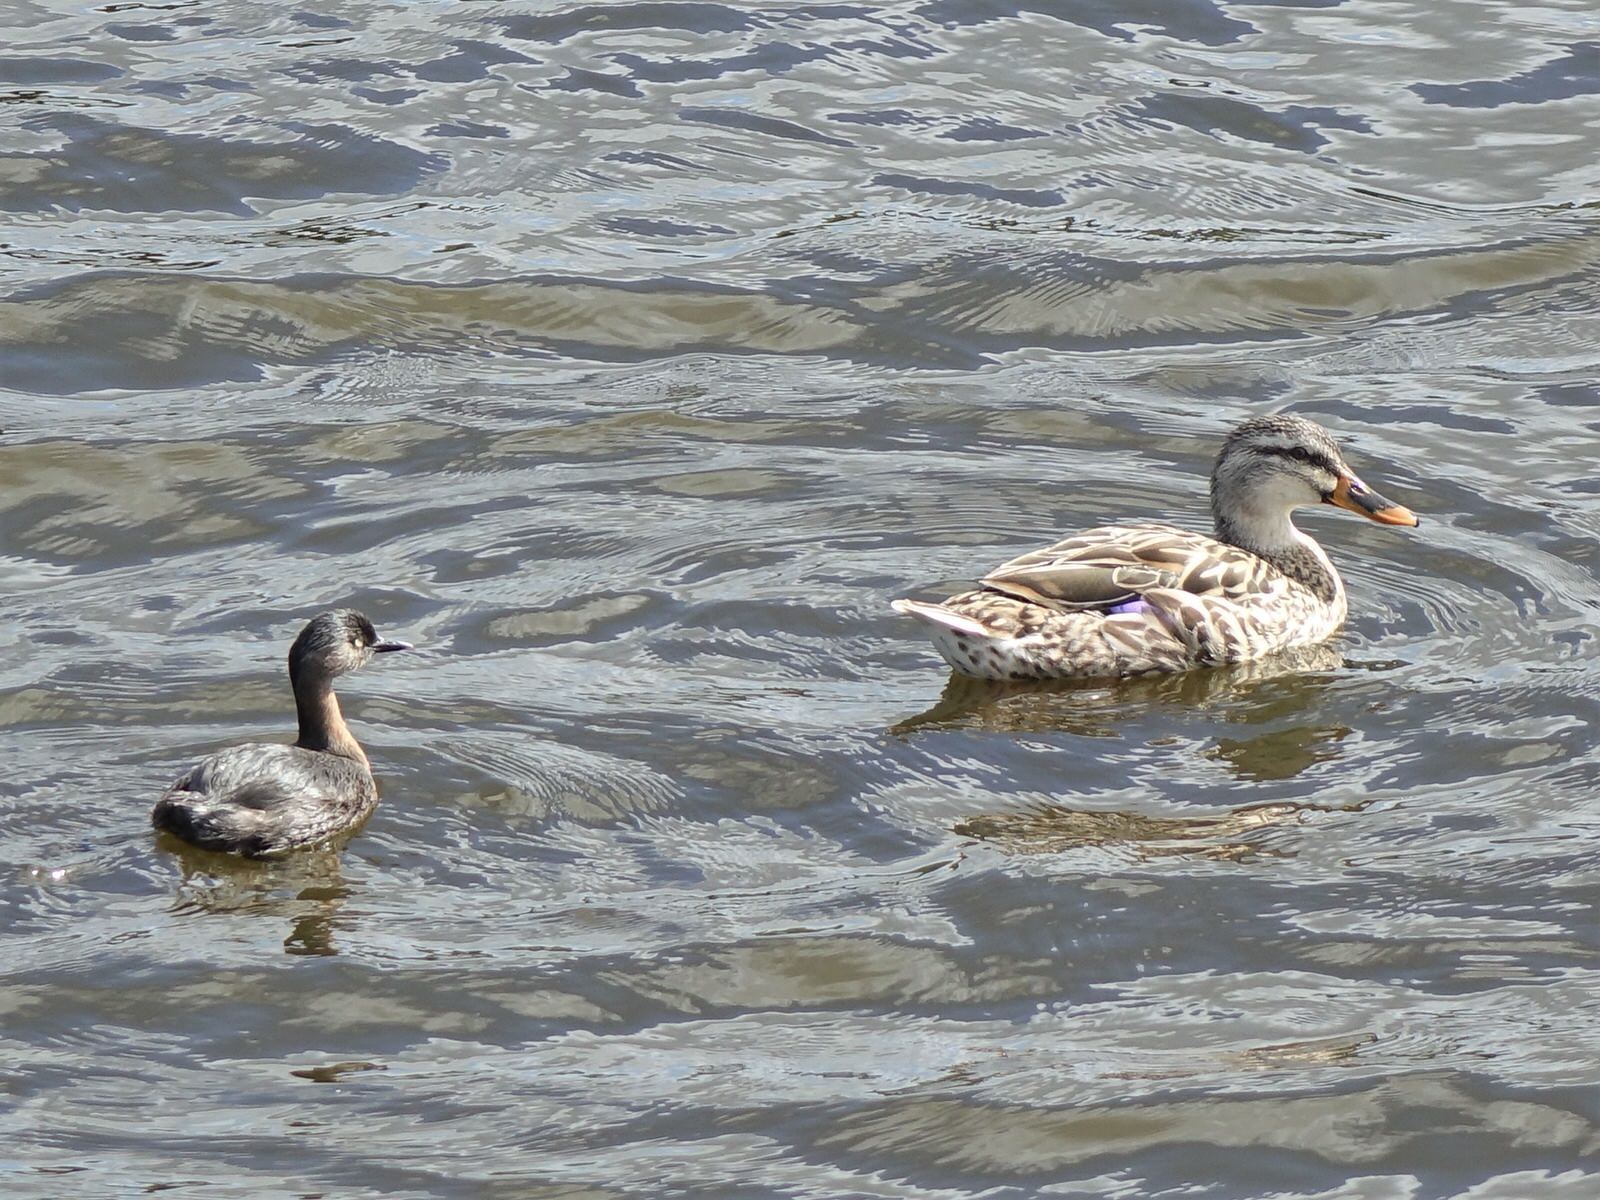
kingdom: Animalia
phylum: Chordata
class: Aves
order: Podicipediformes
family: Podicipedidae
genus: Poliocephalus
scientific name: Poliocephalus rufopectus
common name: New zealand grebe
